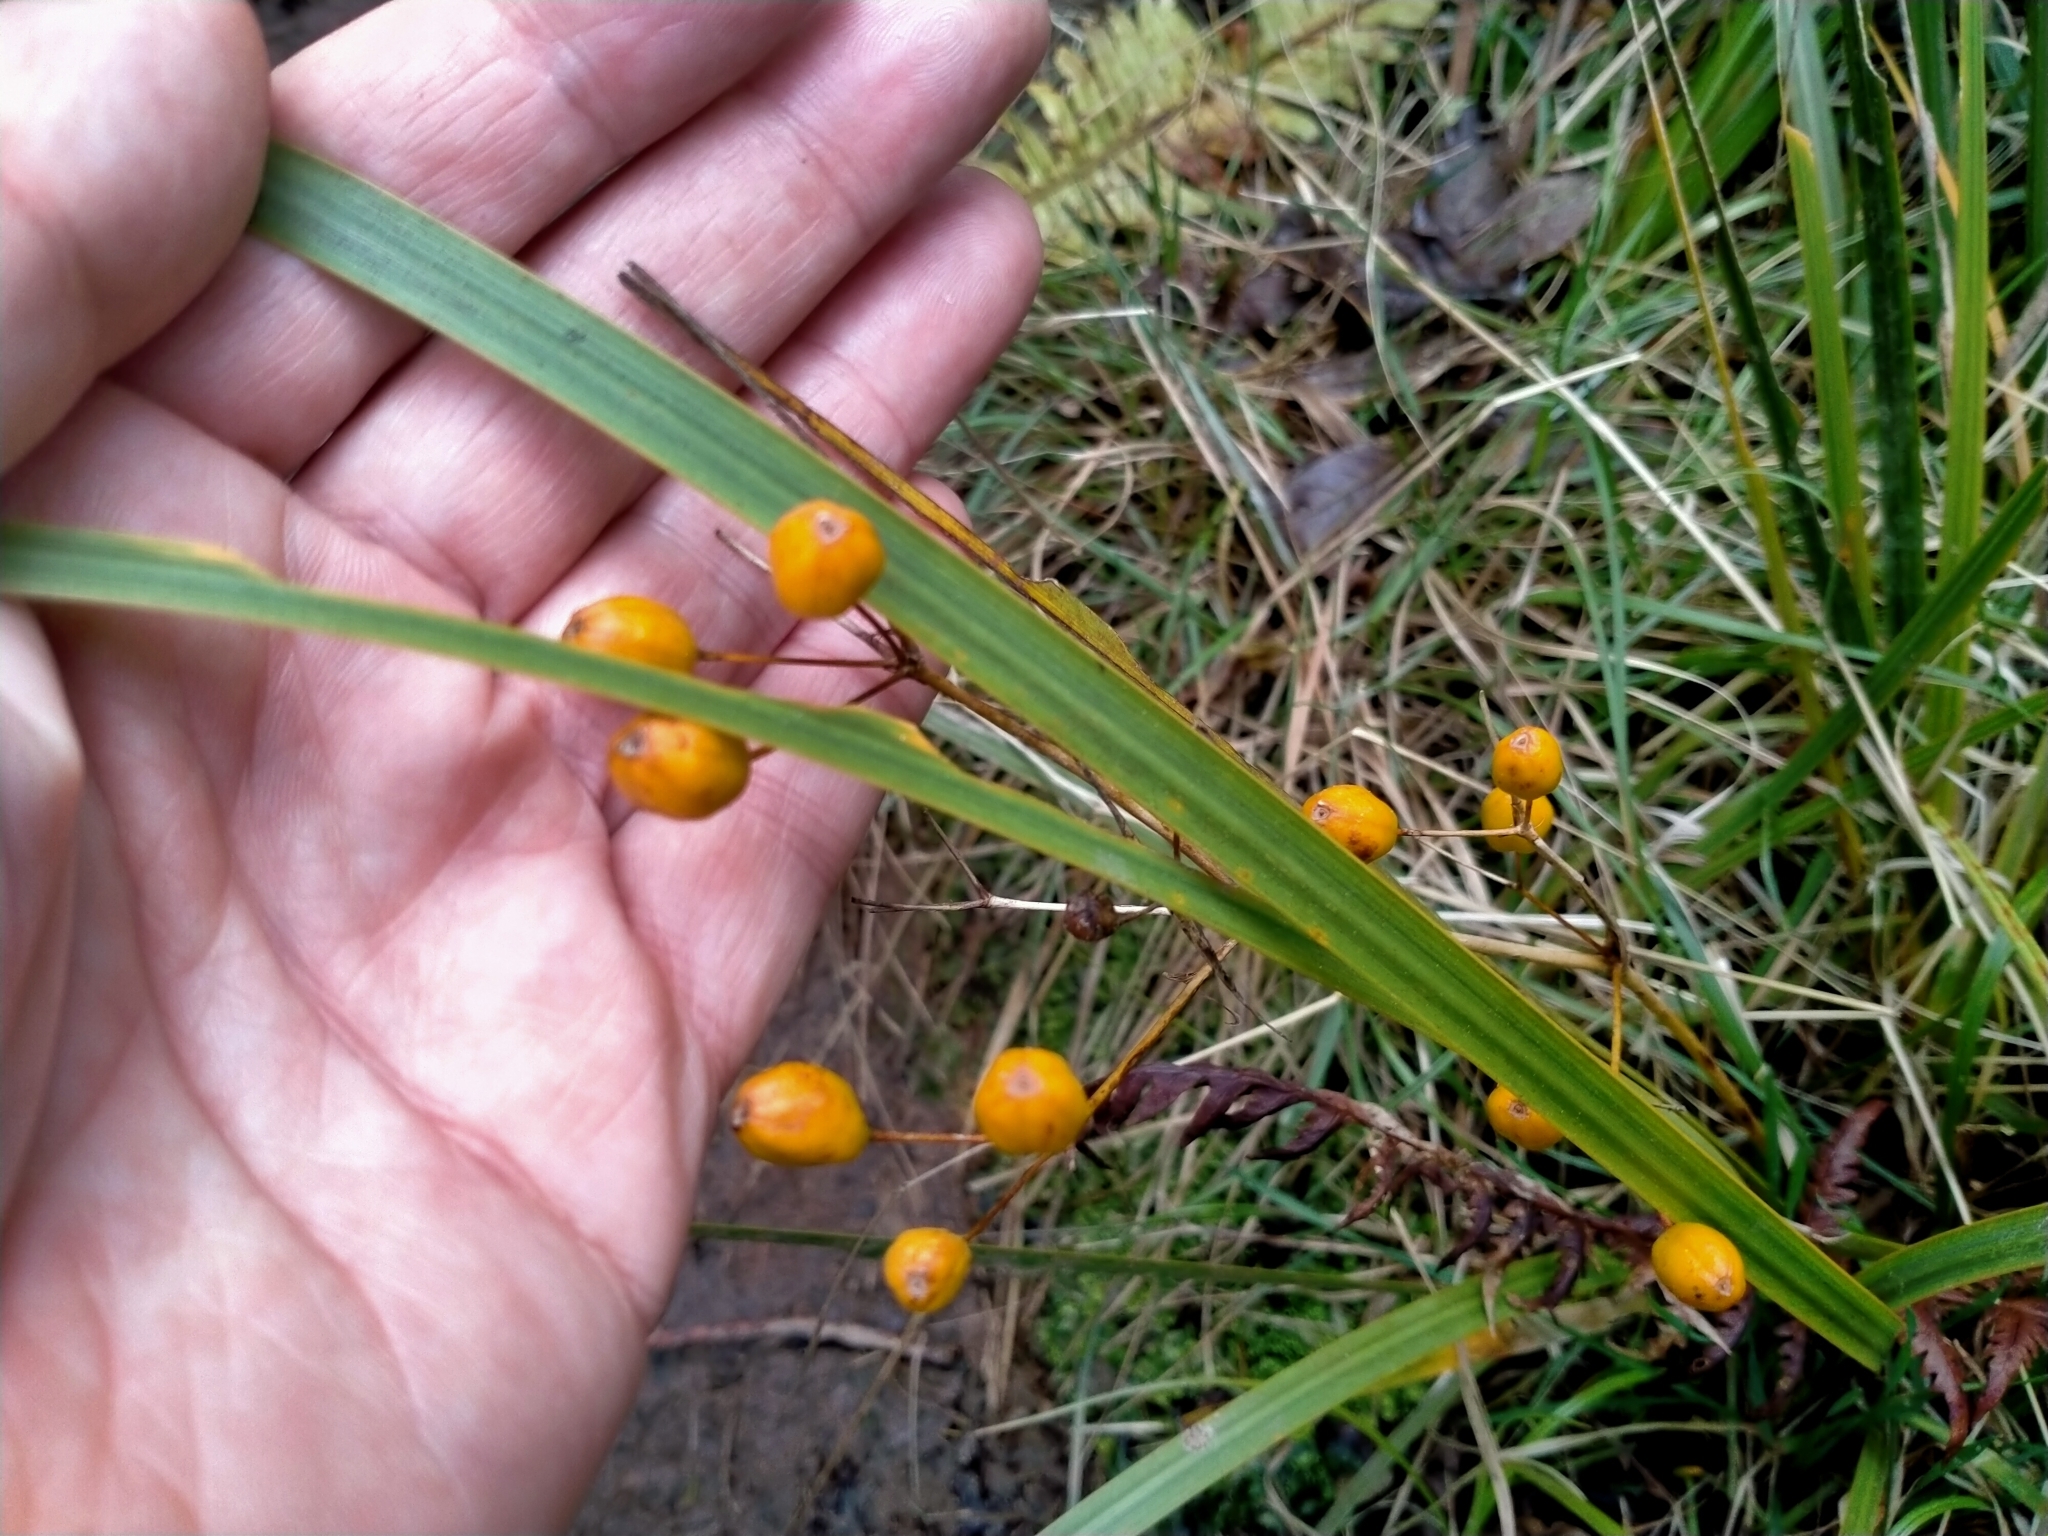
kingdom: Plantae
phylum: Tracheophyta
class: Liliopsida
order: Asparagales
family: Iridaceae
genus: Libertia
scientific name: Libertia ixioides
